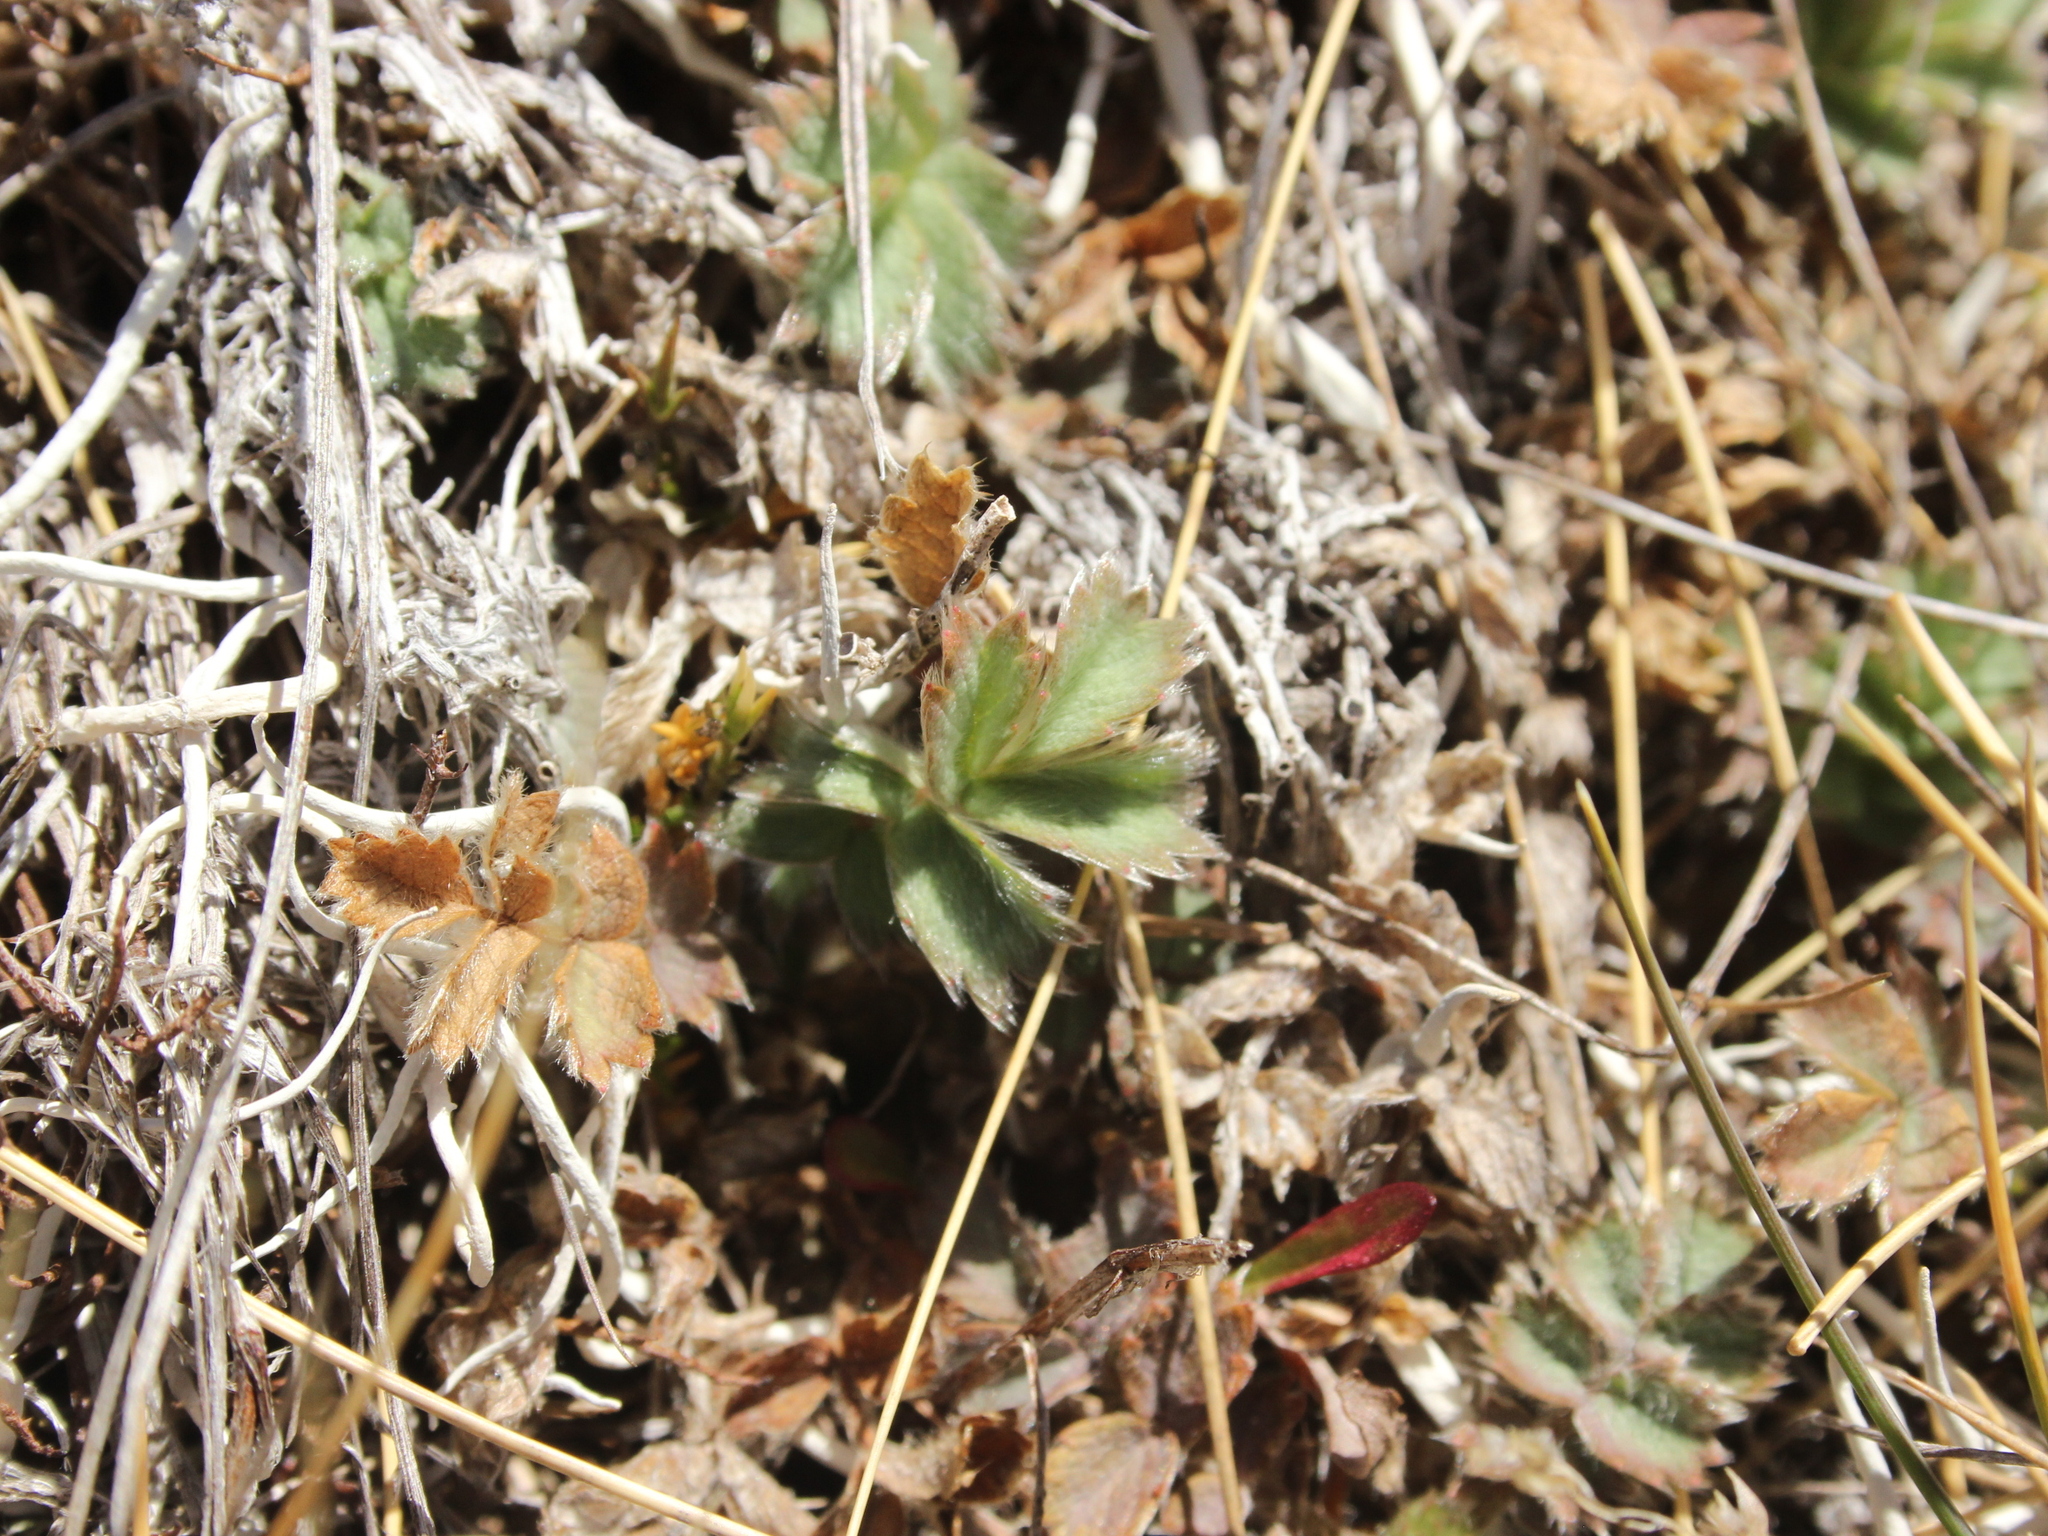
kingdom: Plantae
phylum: Tracheophyta
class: Magnoliopsida
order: Rosales
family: Rosaceae
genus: Acaena
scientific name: Acaena caesiiglauca
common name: Glaucous pirri-pirri-bur
